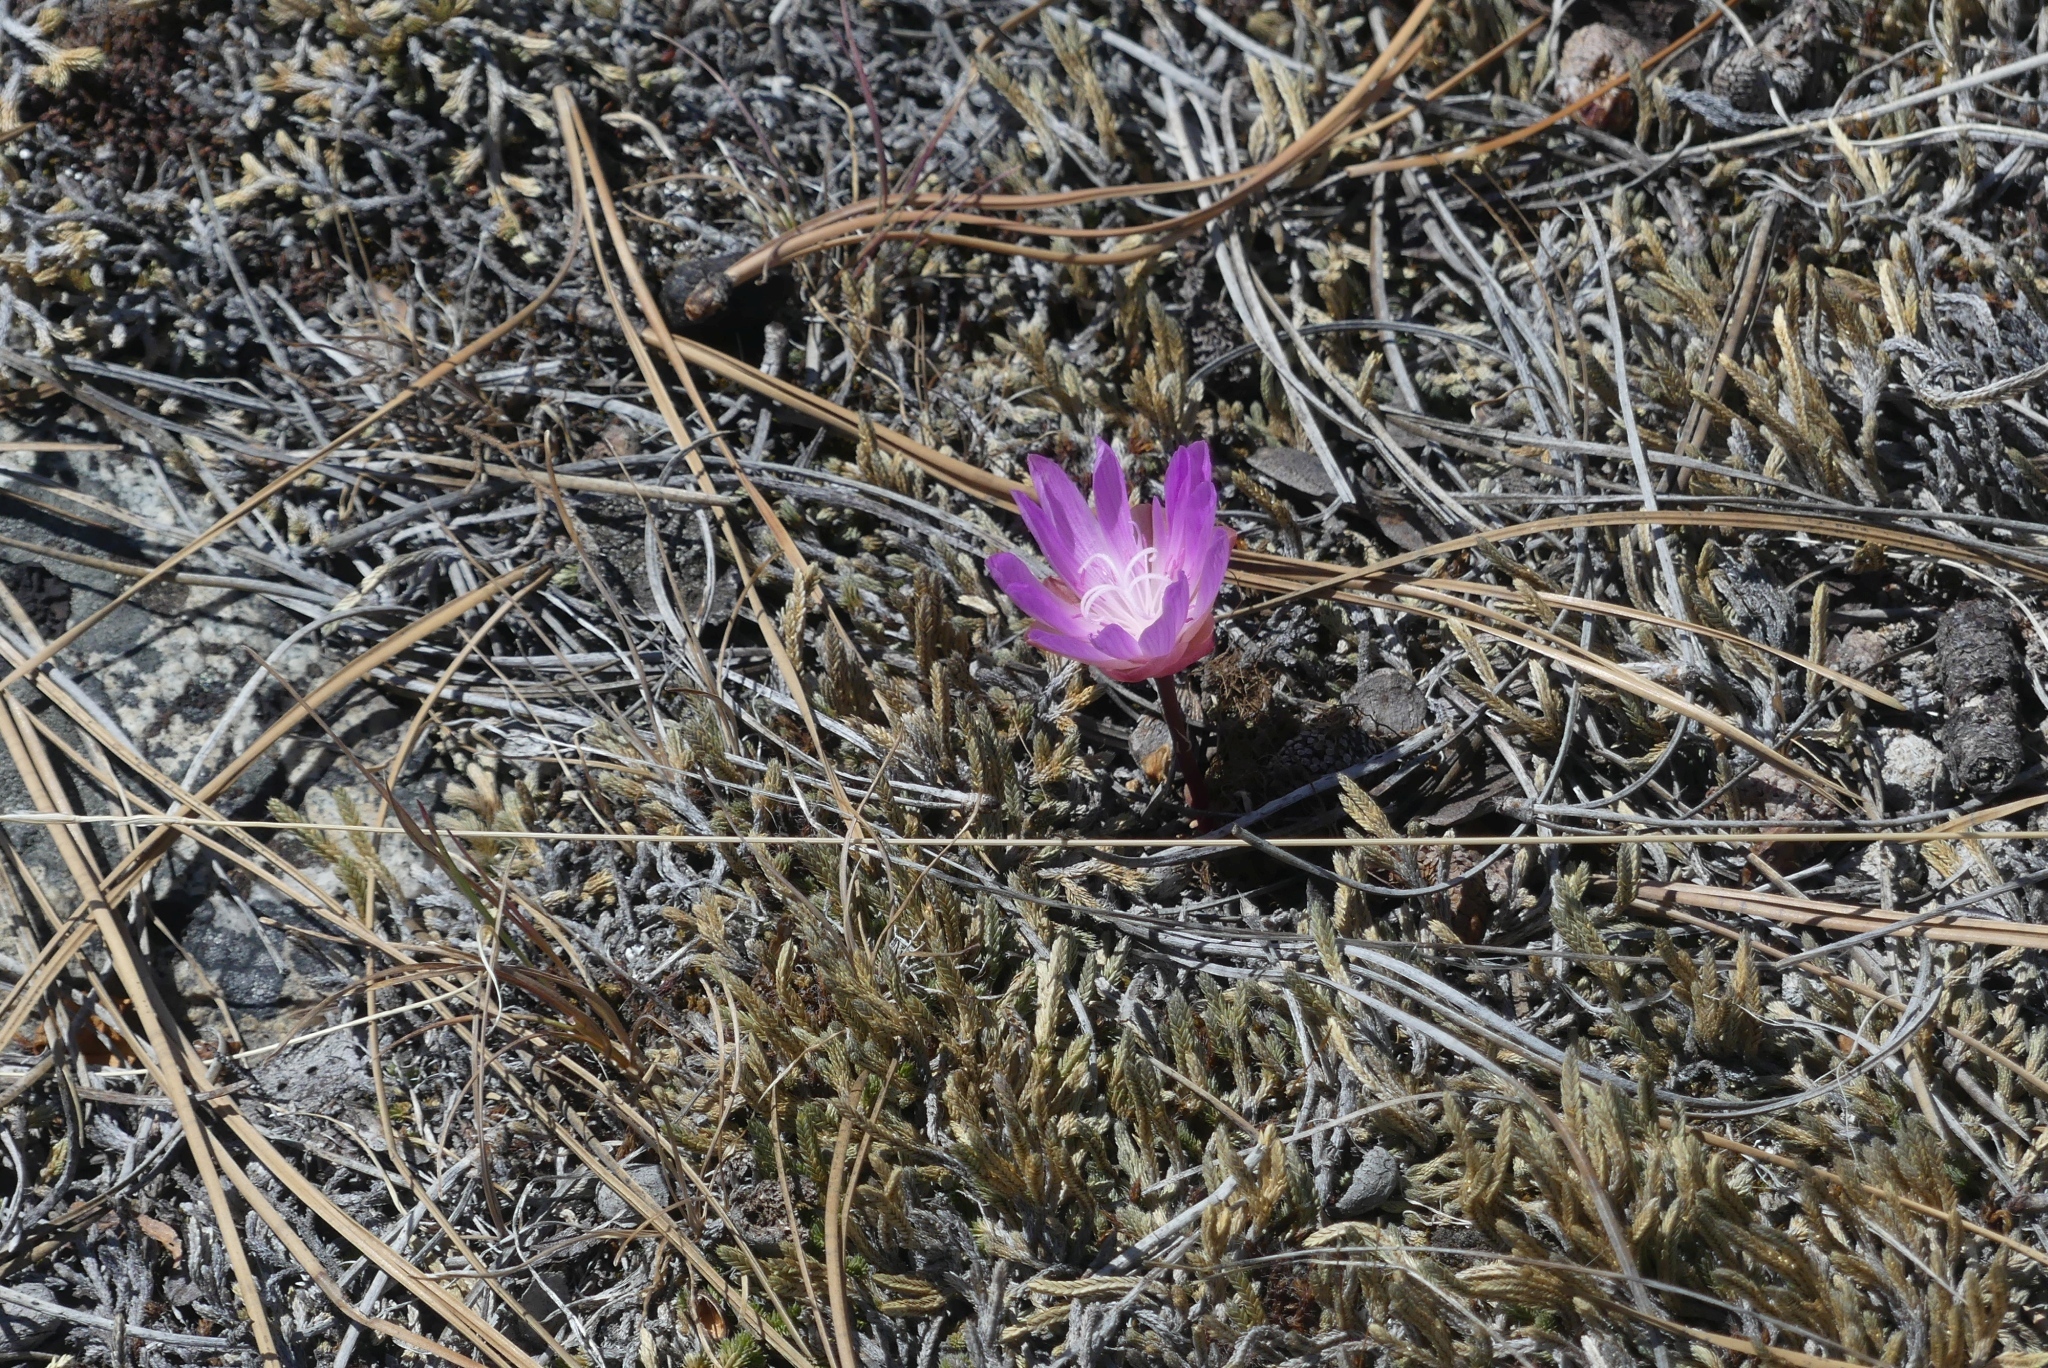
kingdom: Plantae
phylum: Tracheophyta
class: Magnoliopsida
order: Caryophyllales
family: Montiaceae
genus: Lewisia
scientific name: Lewisia rediviva
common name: Bitter-root
